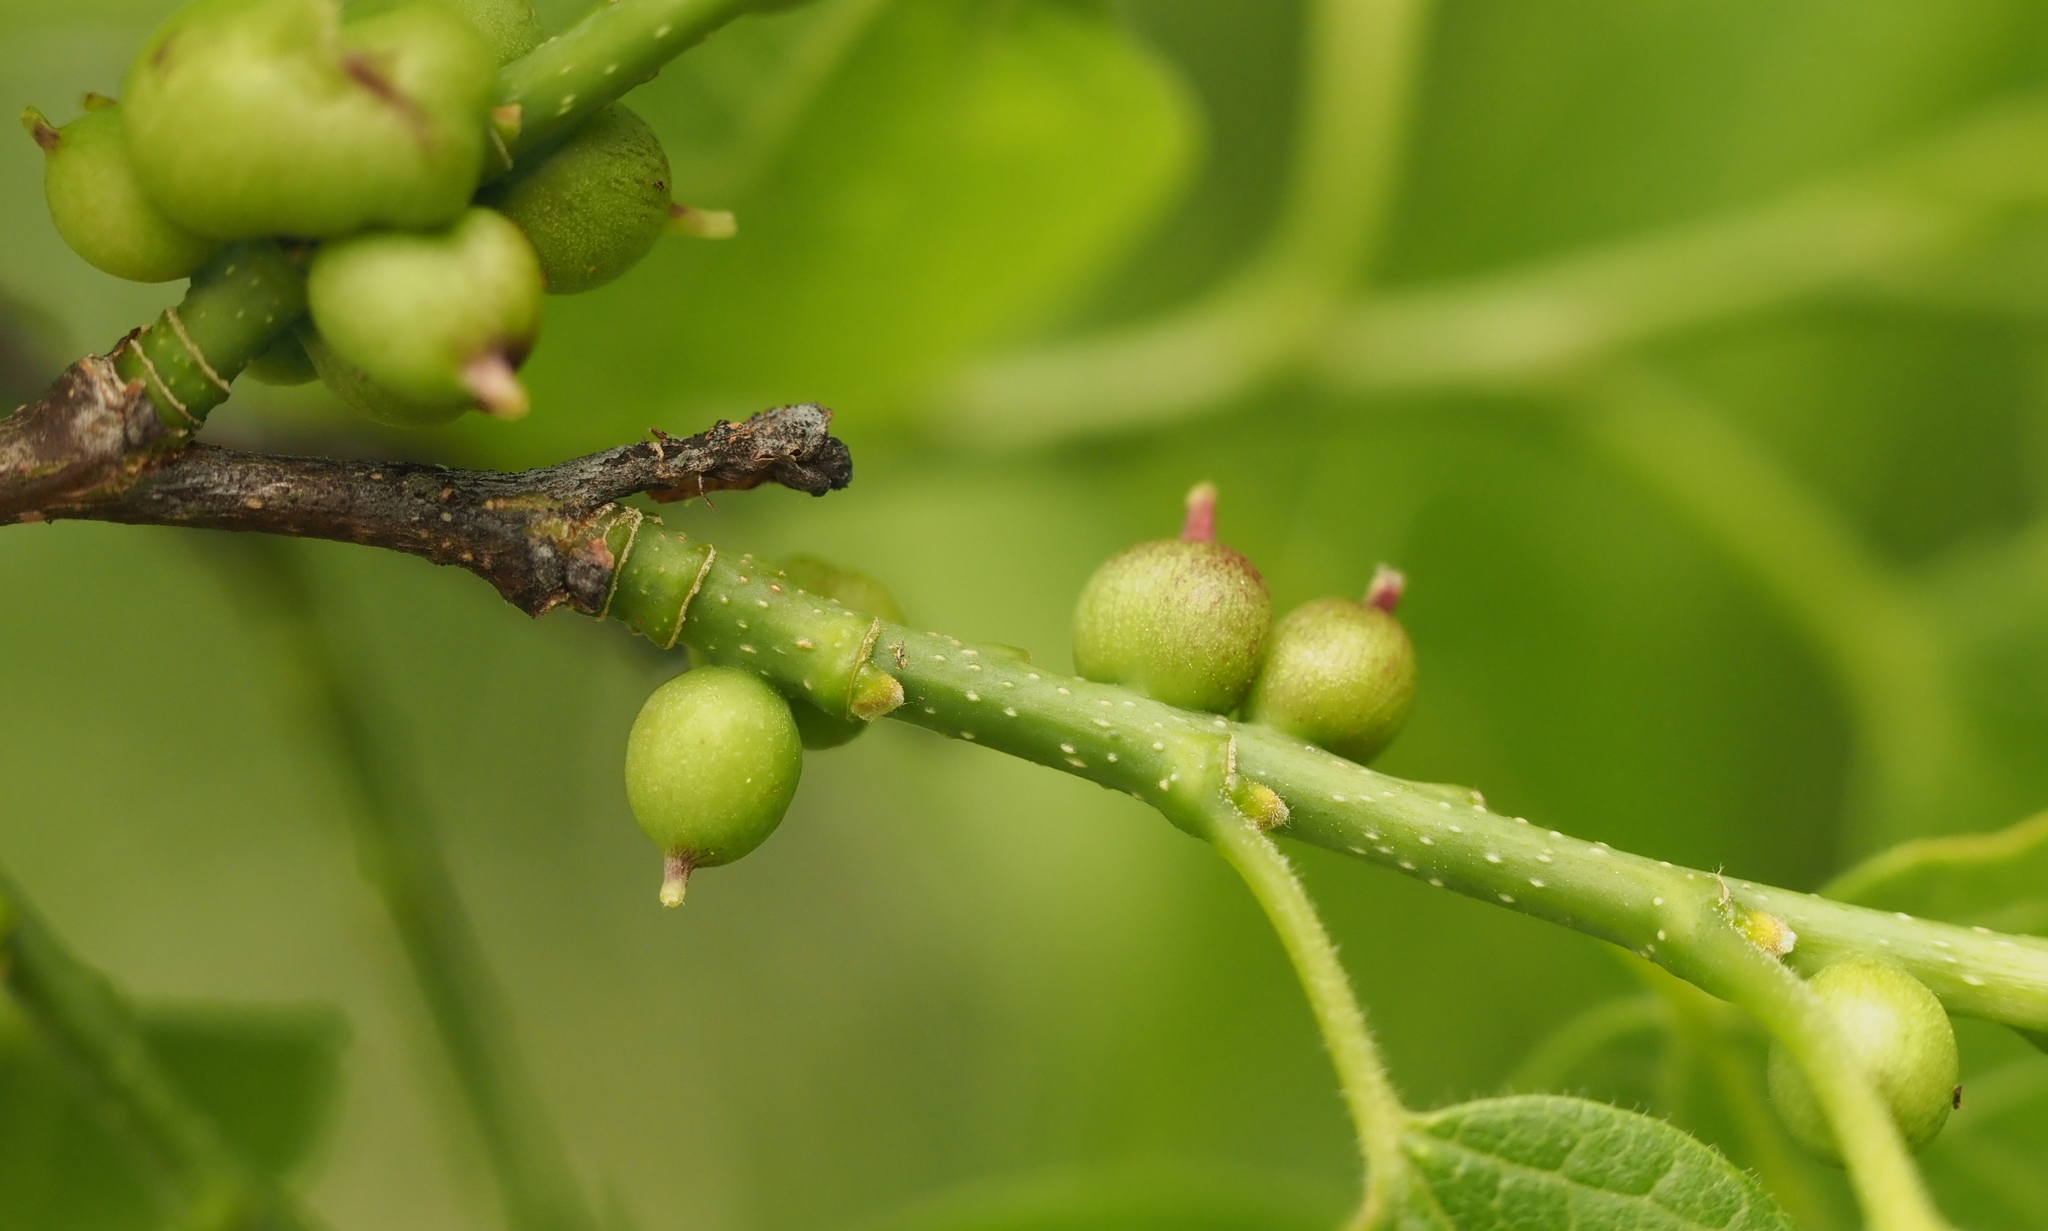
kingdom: Animalia
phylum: Arthropoda
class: Insecta
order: Diptera
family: Cecidomyiidae
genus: Celticecis
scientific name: Celticecis connata
